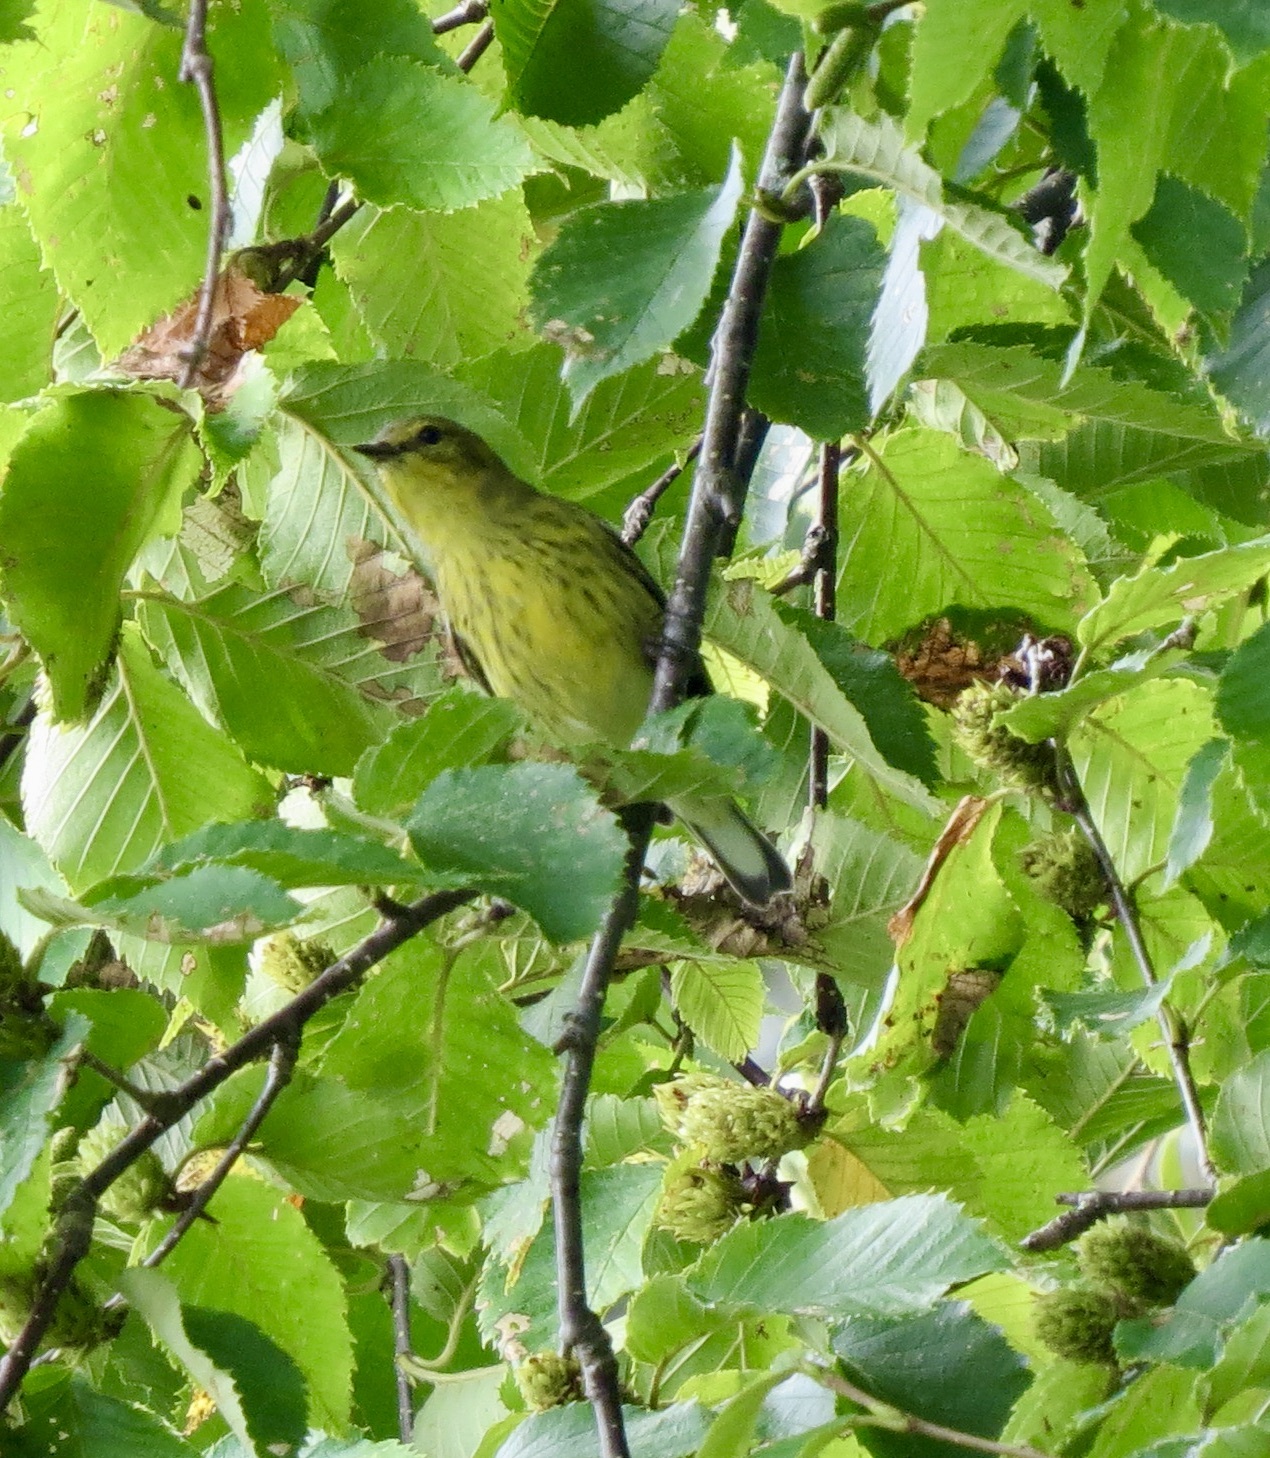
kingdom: Animalia
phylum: Chordata
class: Aves
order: Passeriformes
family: Parulidae
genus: Setophaga
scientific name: Setophaga tigrina
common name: Cape may warbler
